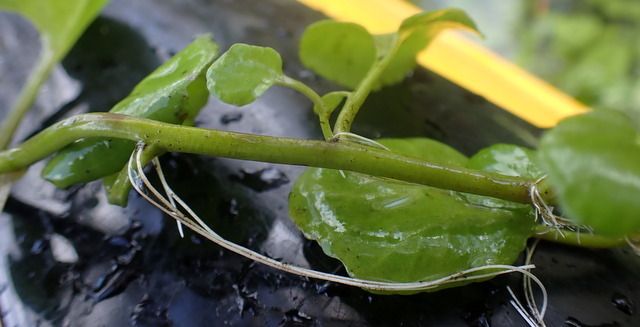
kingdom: Plantae
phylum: Tracheophyta
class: Magnoliopsida
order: Brassicales
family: Brassicaceae
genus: Nasturtium
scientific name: Nasturtium floridanum
